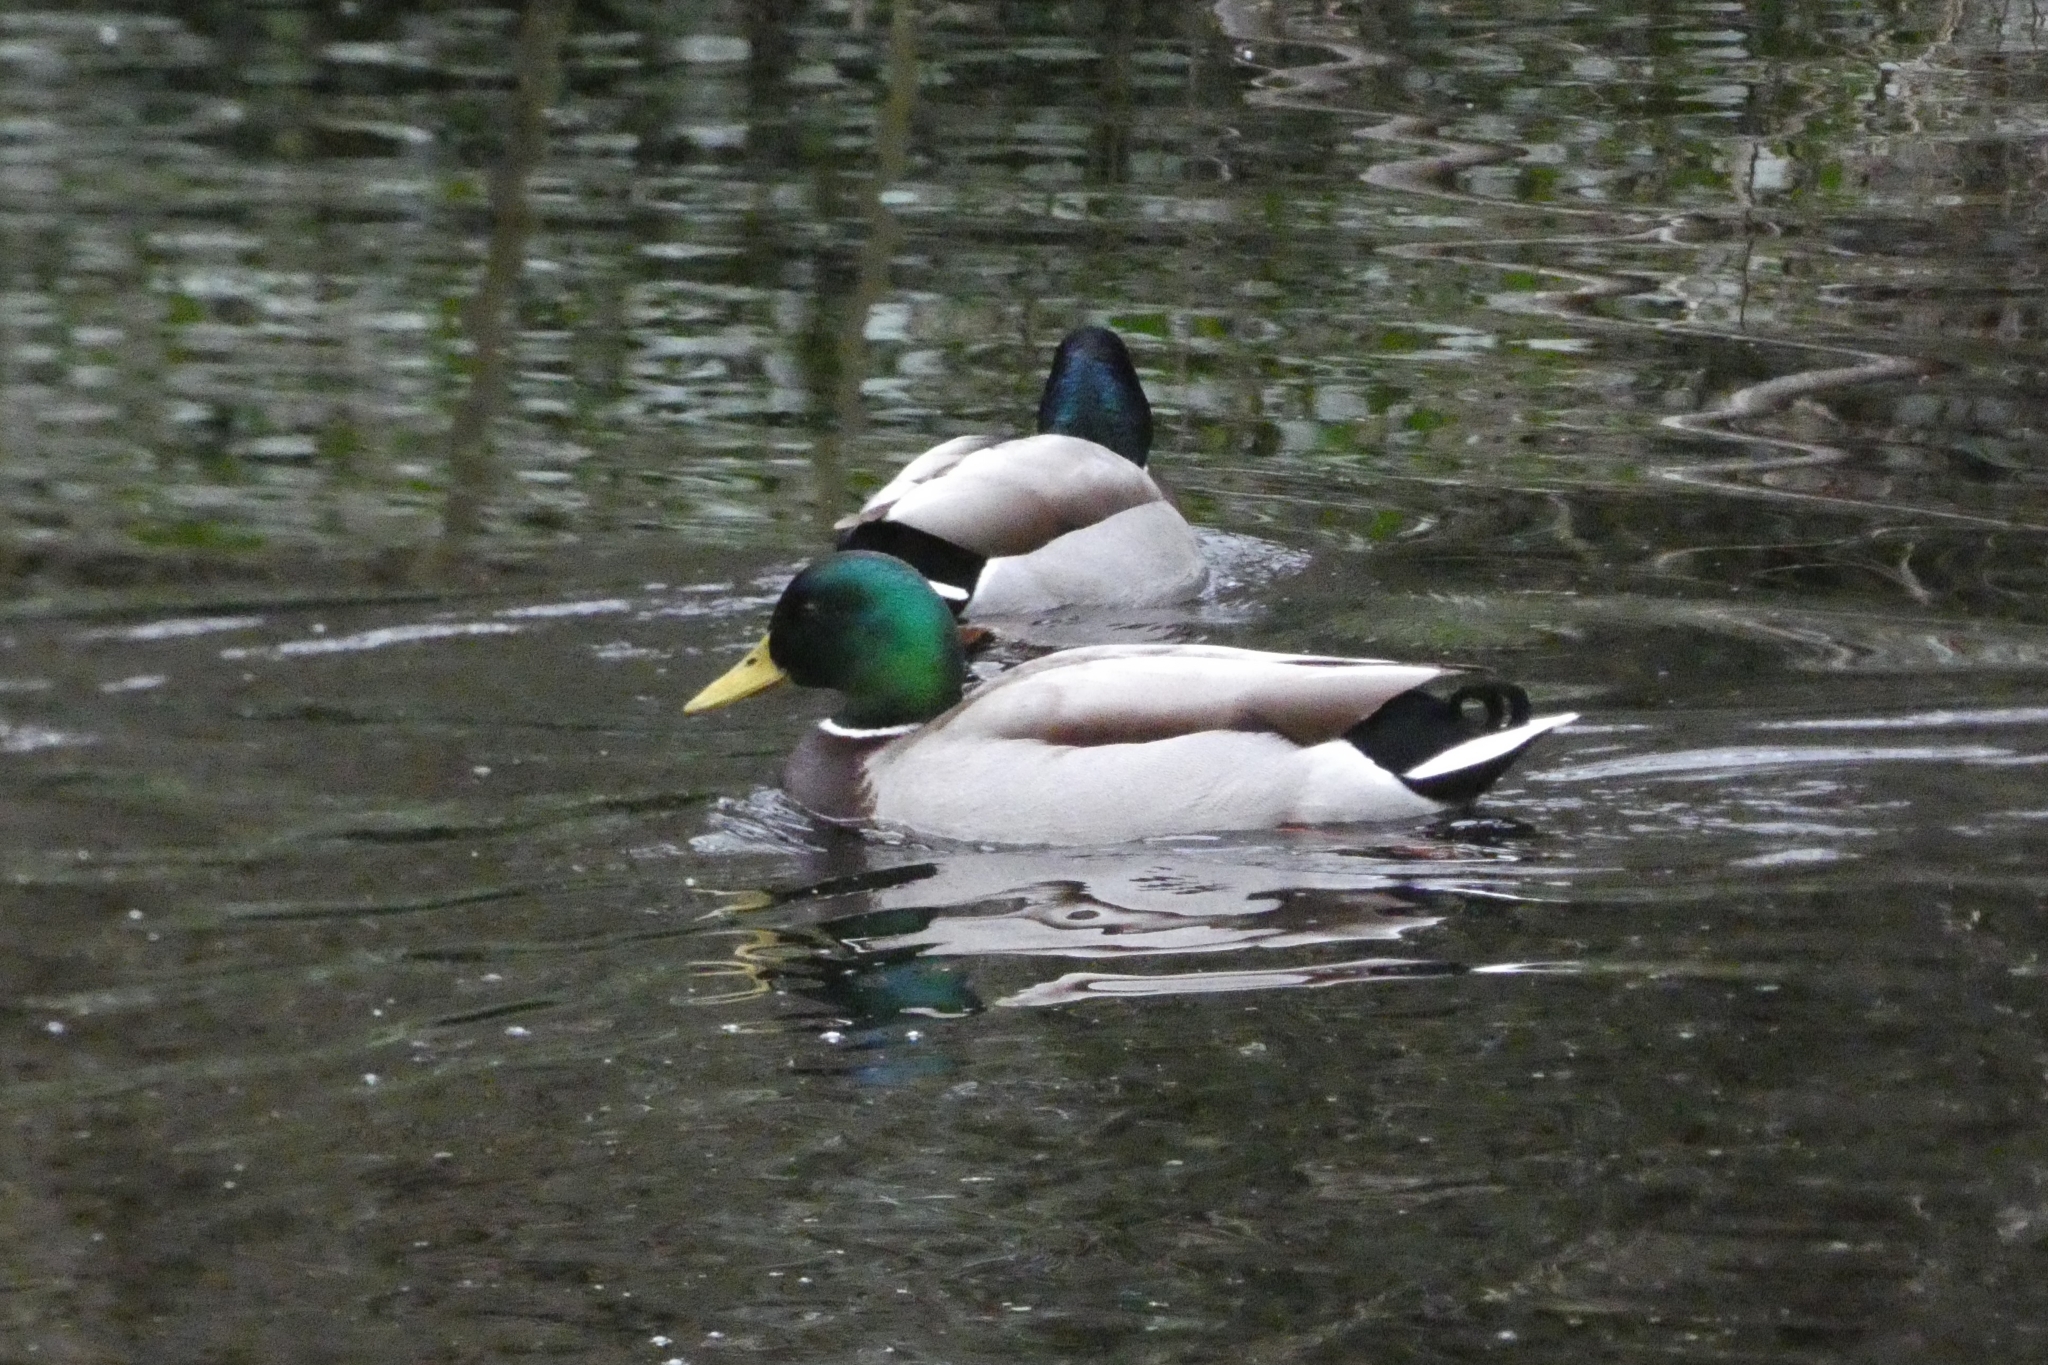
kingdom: Animalia
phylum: Chordata
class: Aves
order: Anseriformes
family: Anatidae
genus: Anas
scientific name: Anas platyrhynchos
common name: Mallard
